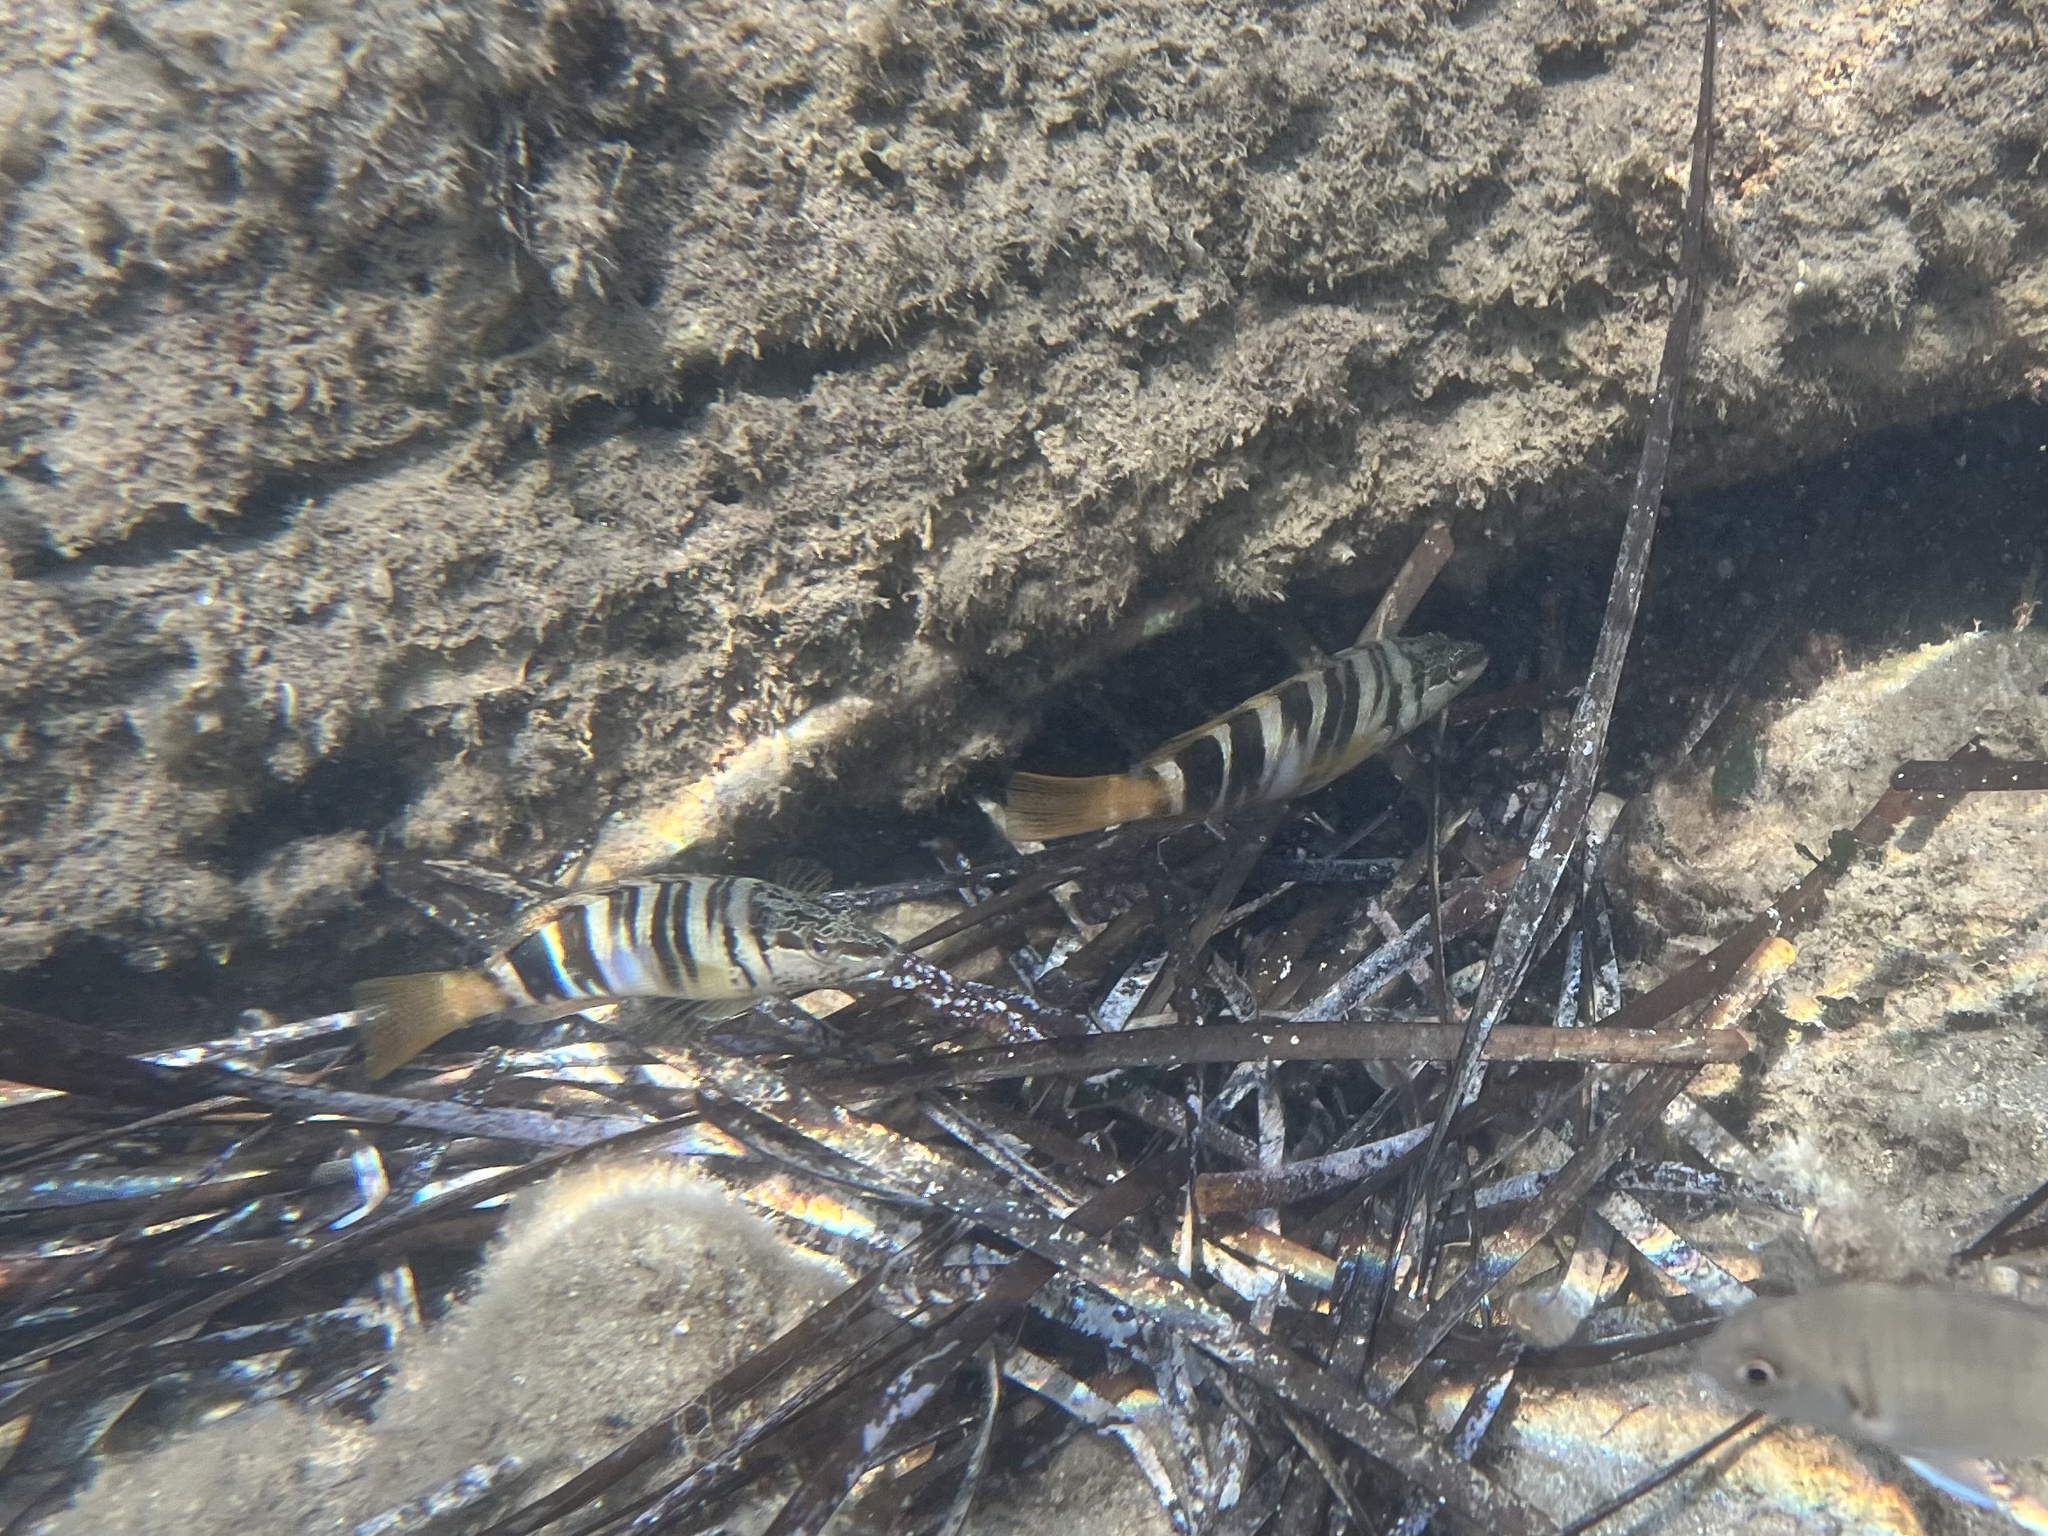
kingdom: Animalia
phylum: Chordata
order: Perciformes
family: Serranidae
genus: Serranus
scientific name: Serranus scriba
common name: Painted comber
